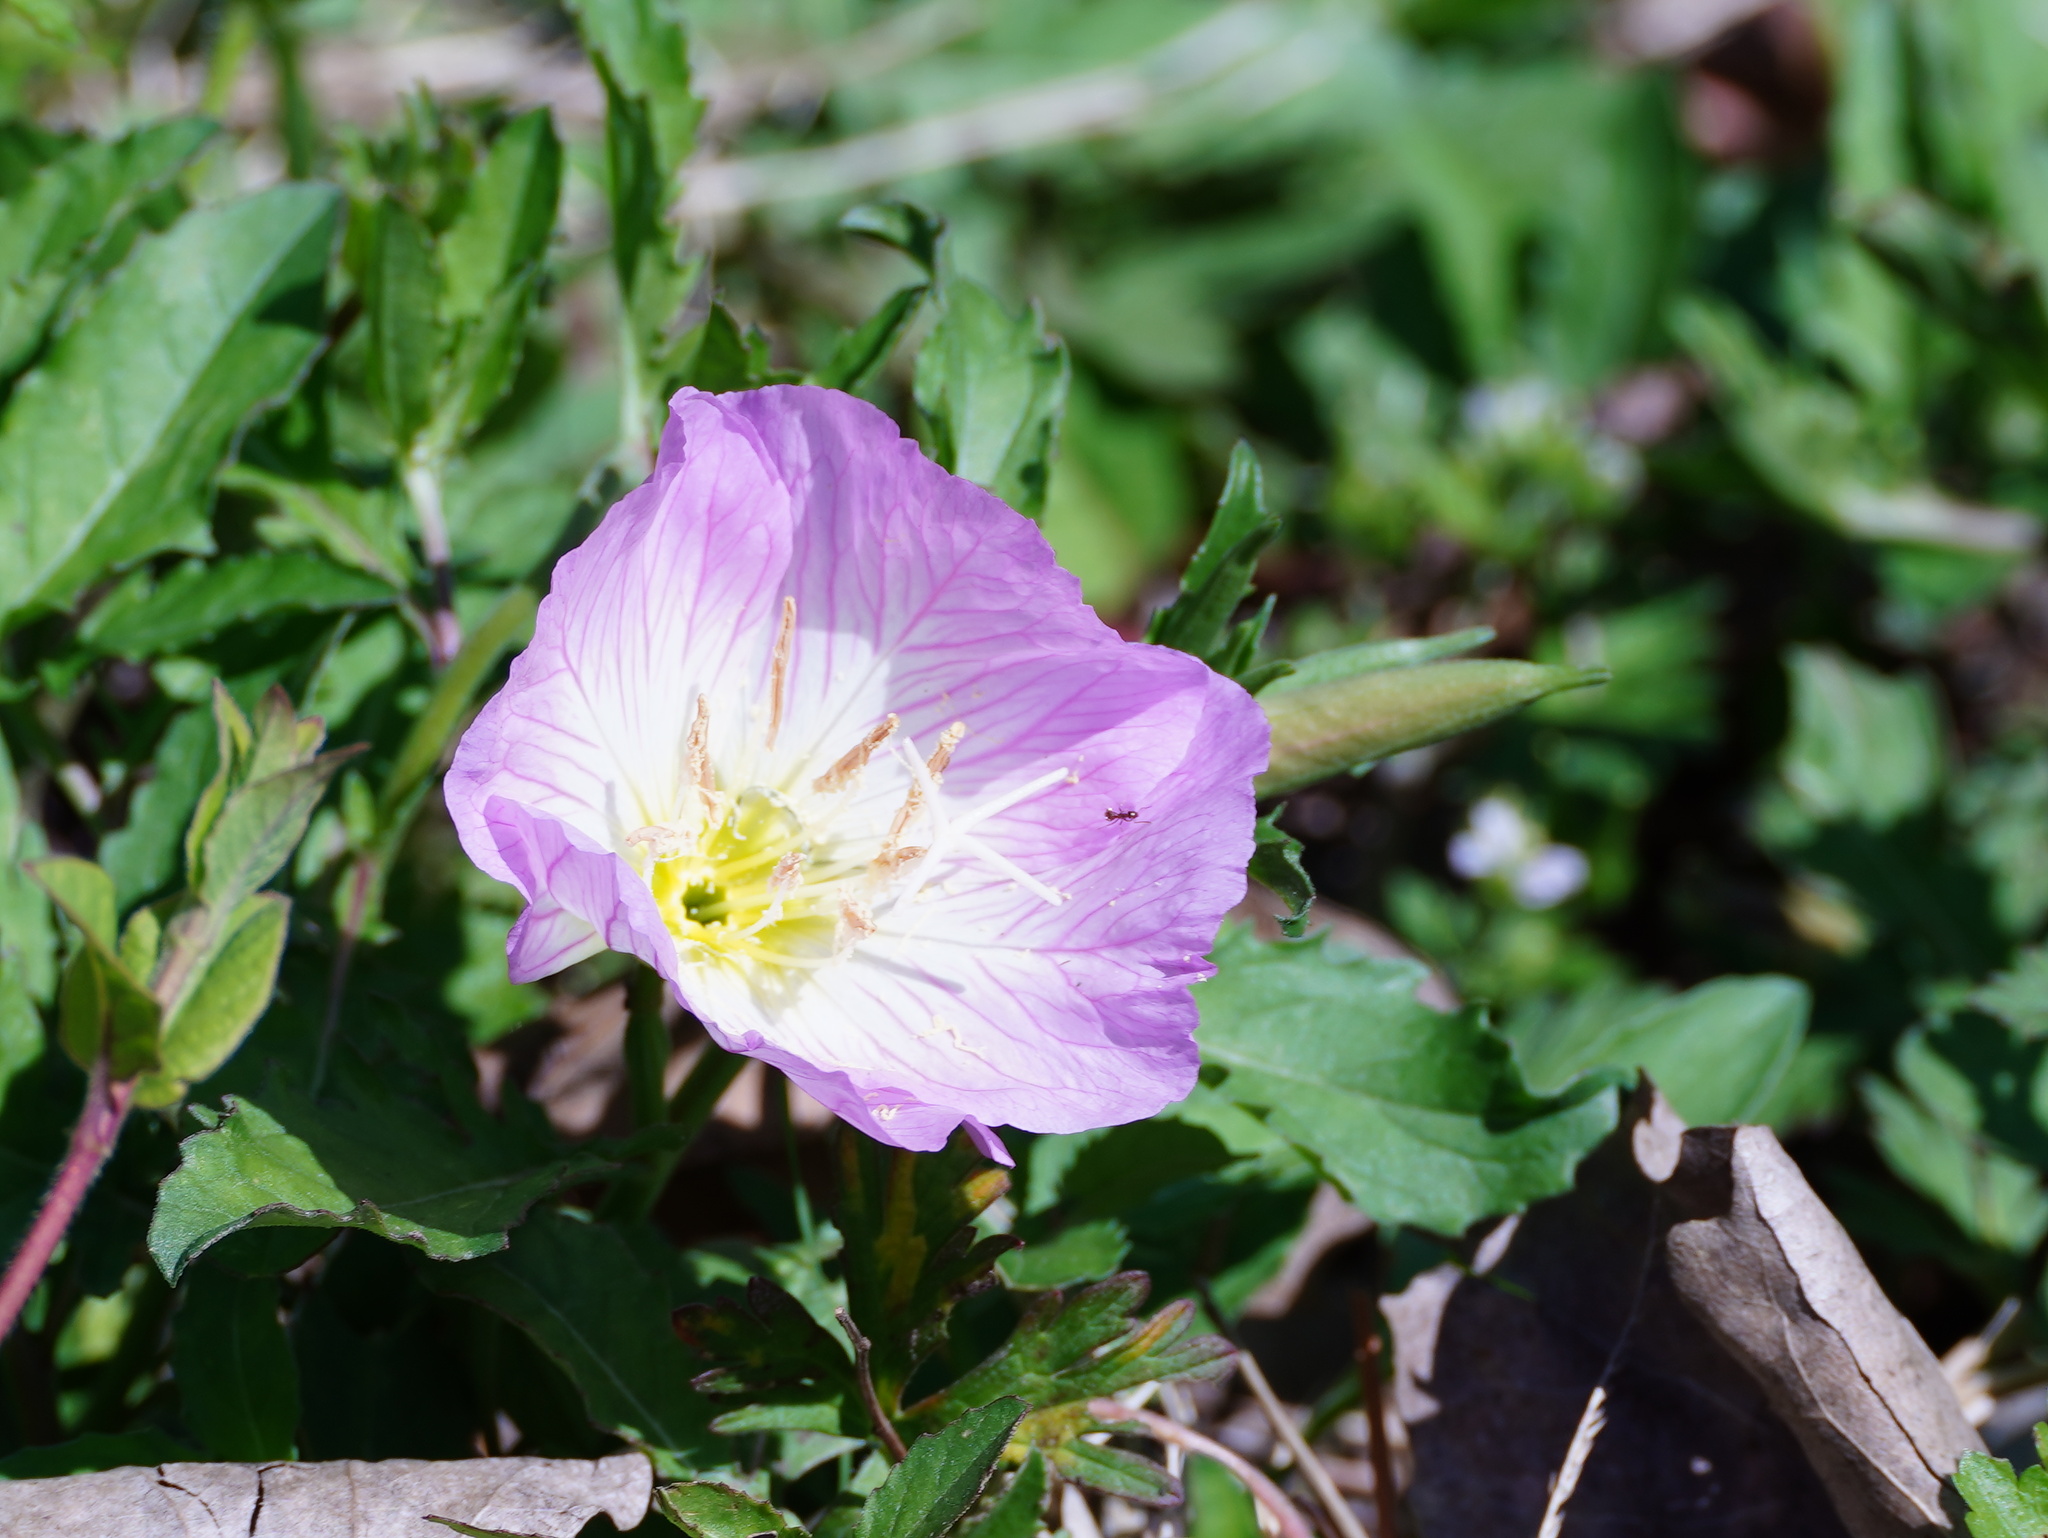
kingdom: Plantae
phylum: Tracheophyta
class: Magnoliopsida
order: Myrtales
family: Onagraceae
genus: Oenothera
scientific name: Oenothera speciosa
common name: White evening-primrose
